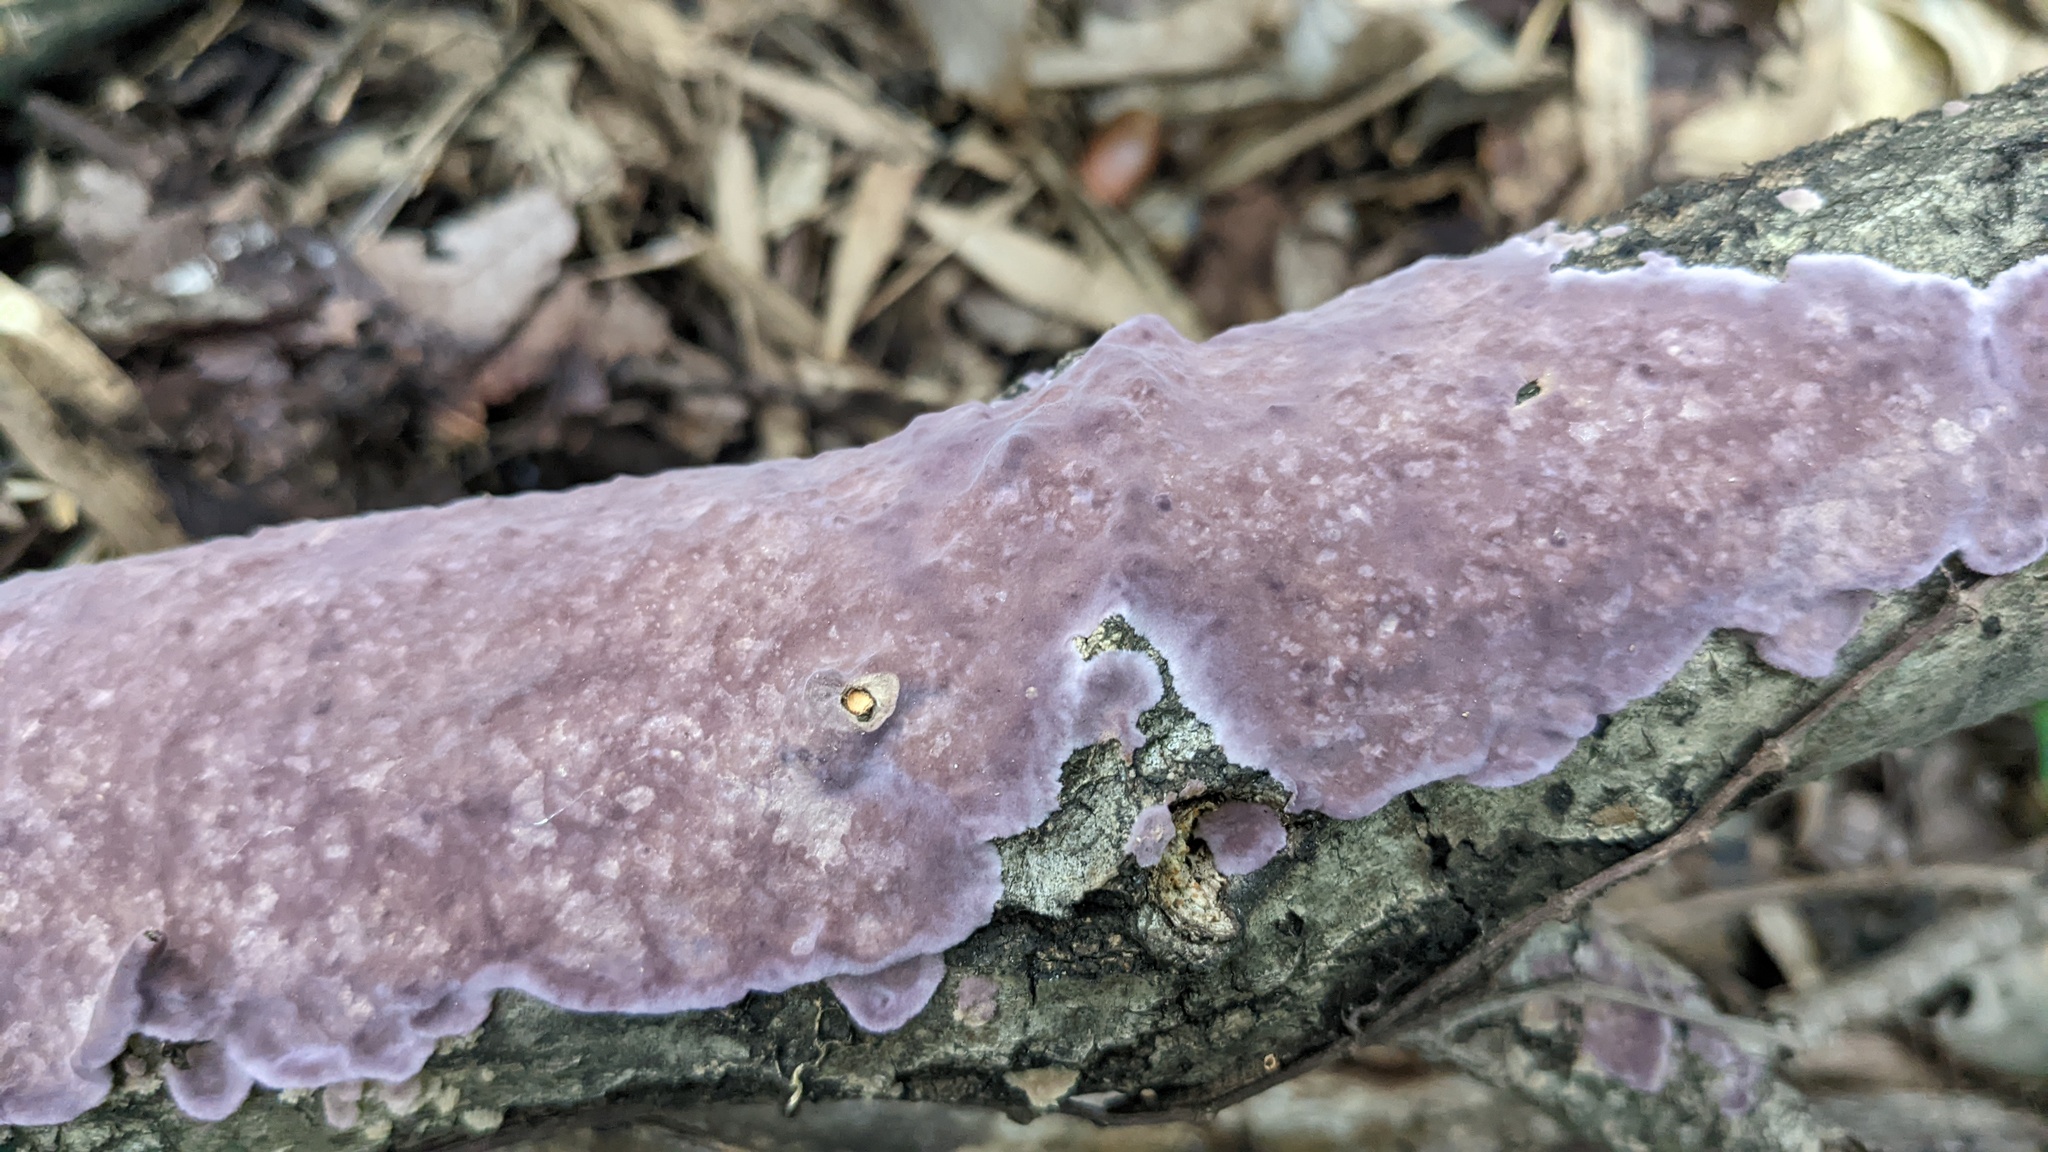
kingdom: Fungi
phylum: Basidiomycota
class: Agaricomycetes
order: Polyporales
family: Phanerochaetaceae
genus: Phlebiopsis
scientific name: Phlebiopsis crassa
